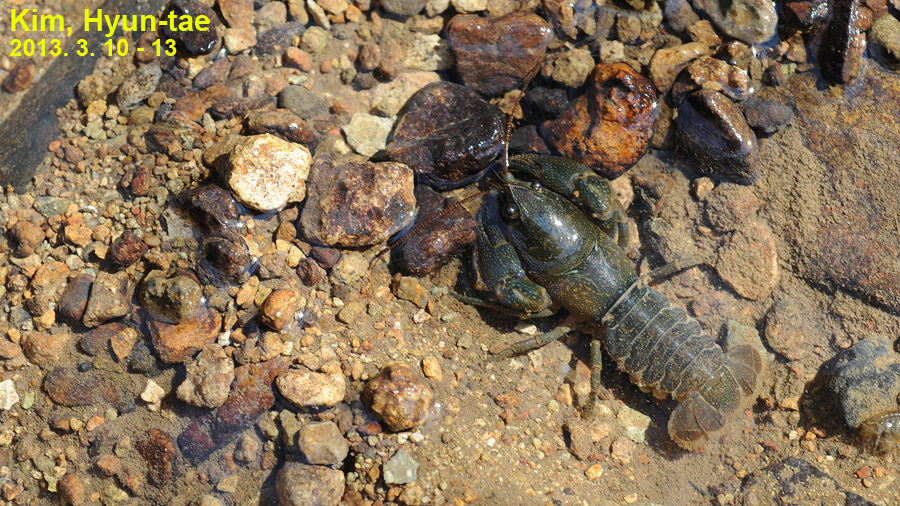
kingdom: Animalia
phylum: Arthropoda
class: Malacostraca
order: Decapoda
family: Cambaroididae
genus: Cambaroides
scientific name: Cambaroides similis
